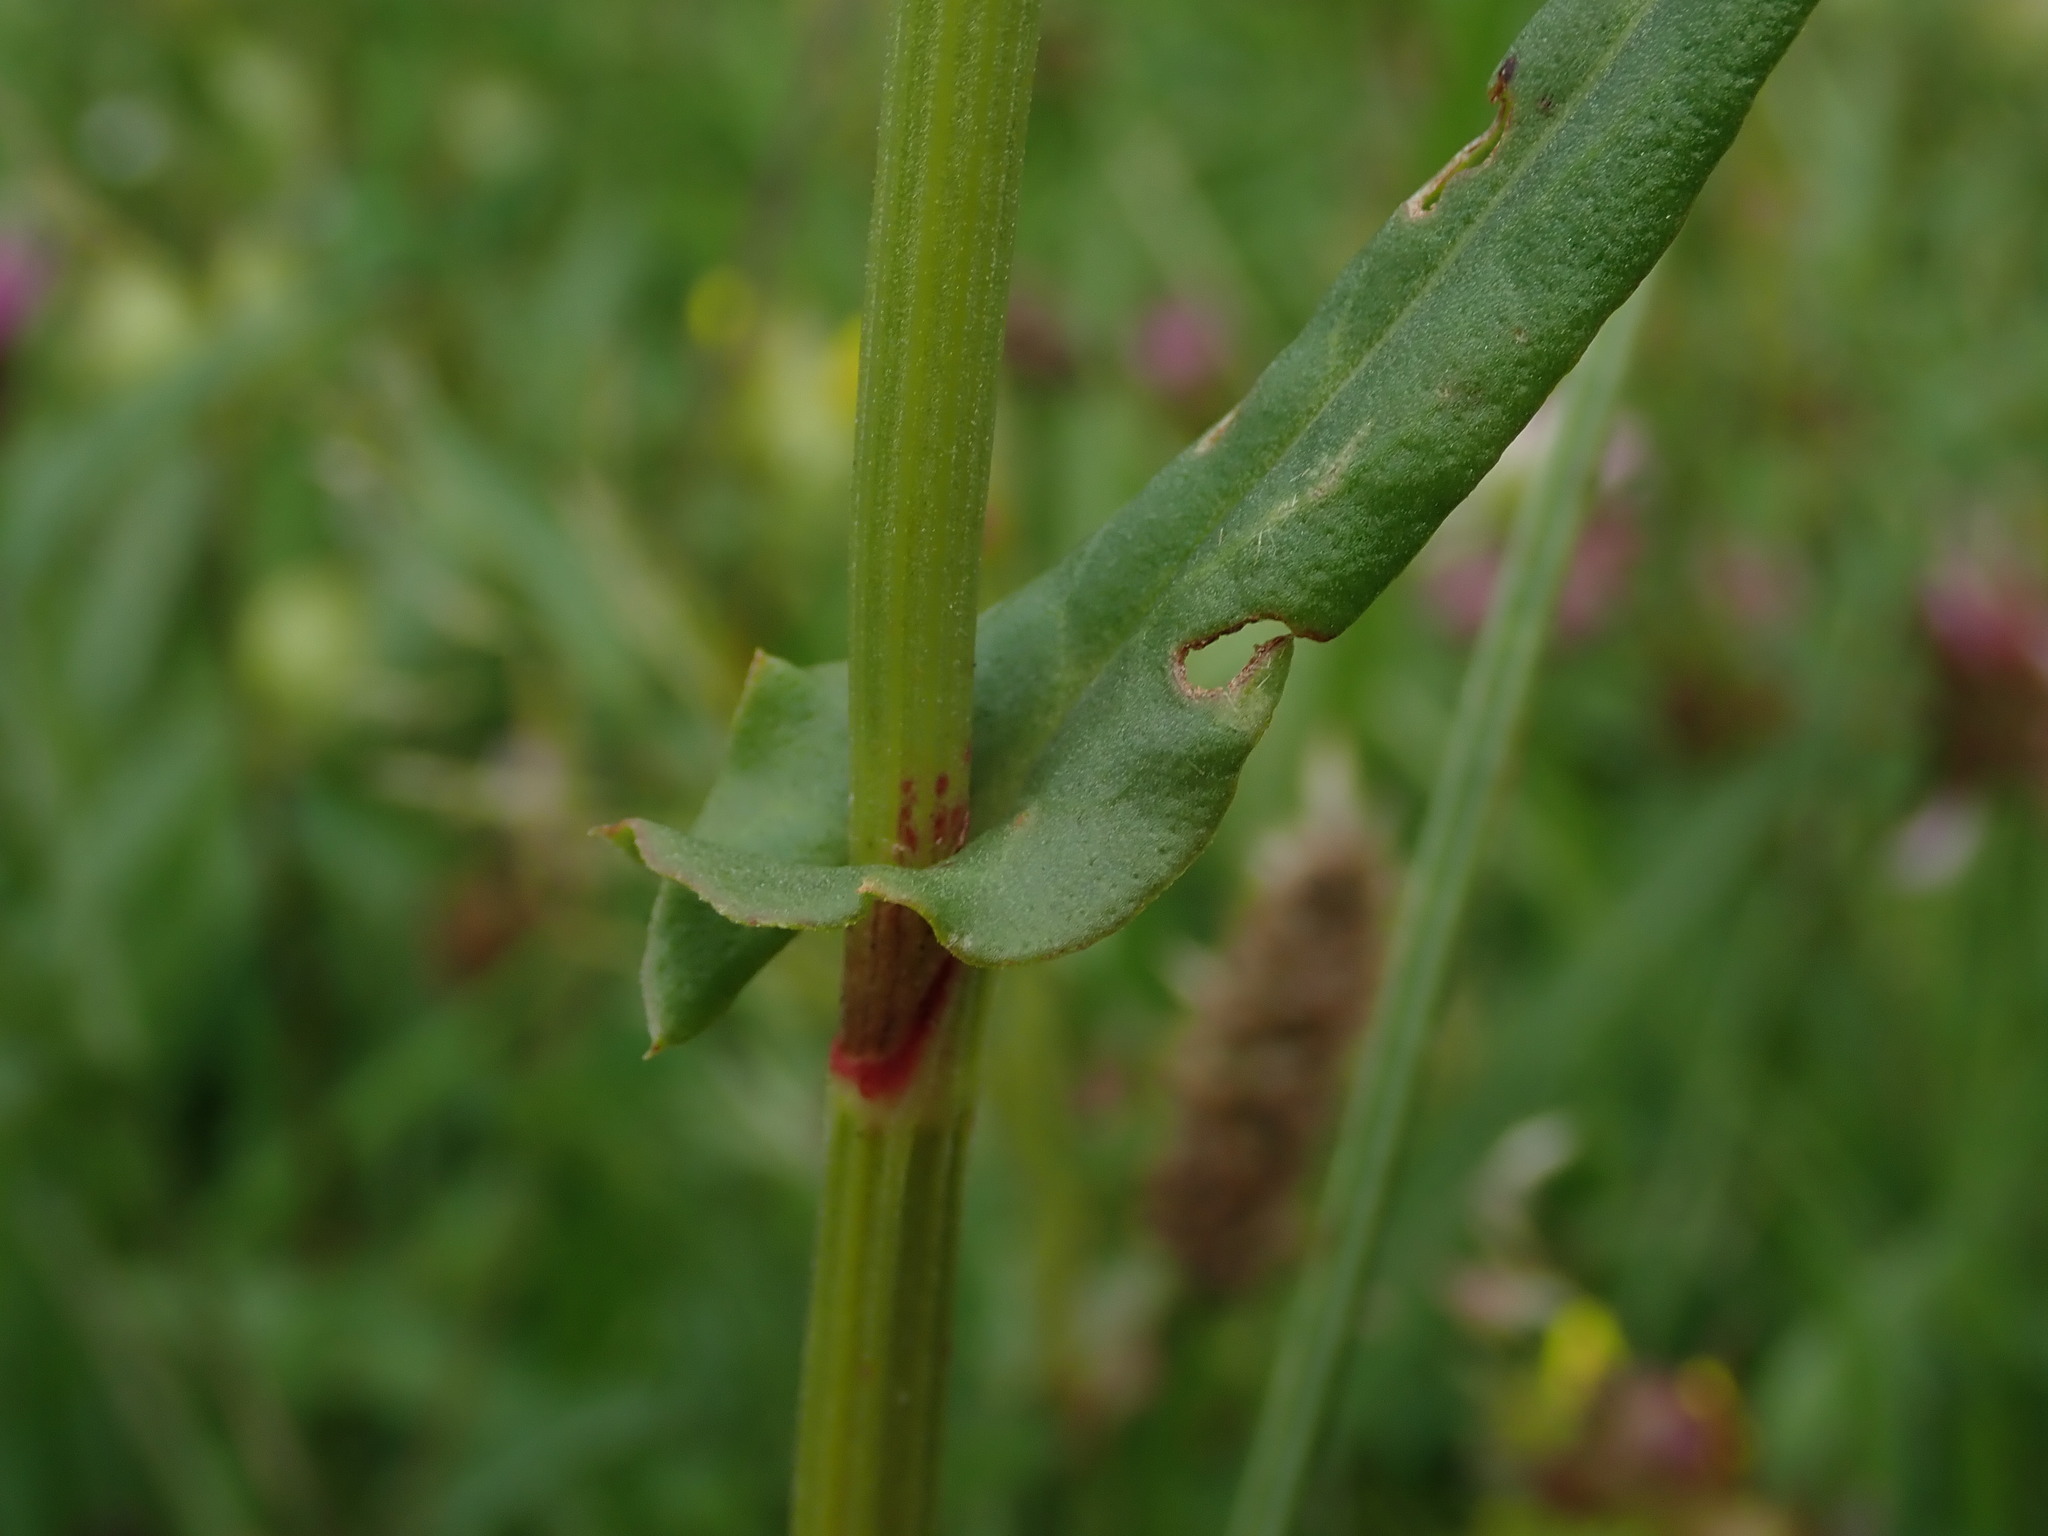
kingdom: Plantae
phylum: Tracheophyta
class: Magnoliopsida
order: Caryophyllales
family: Polygonaceae
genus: Rumex
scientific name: Rumex acetosa
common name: Garden sorrel
